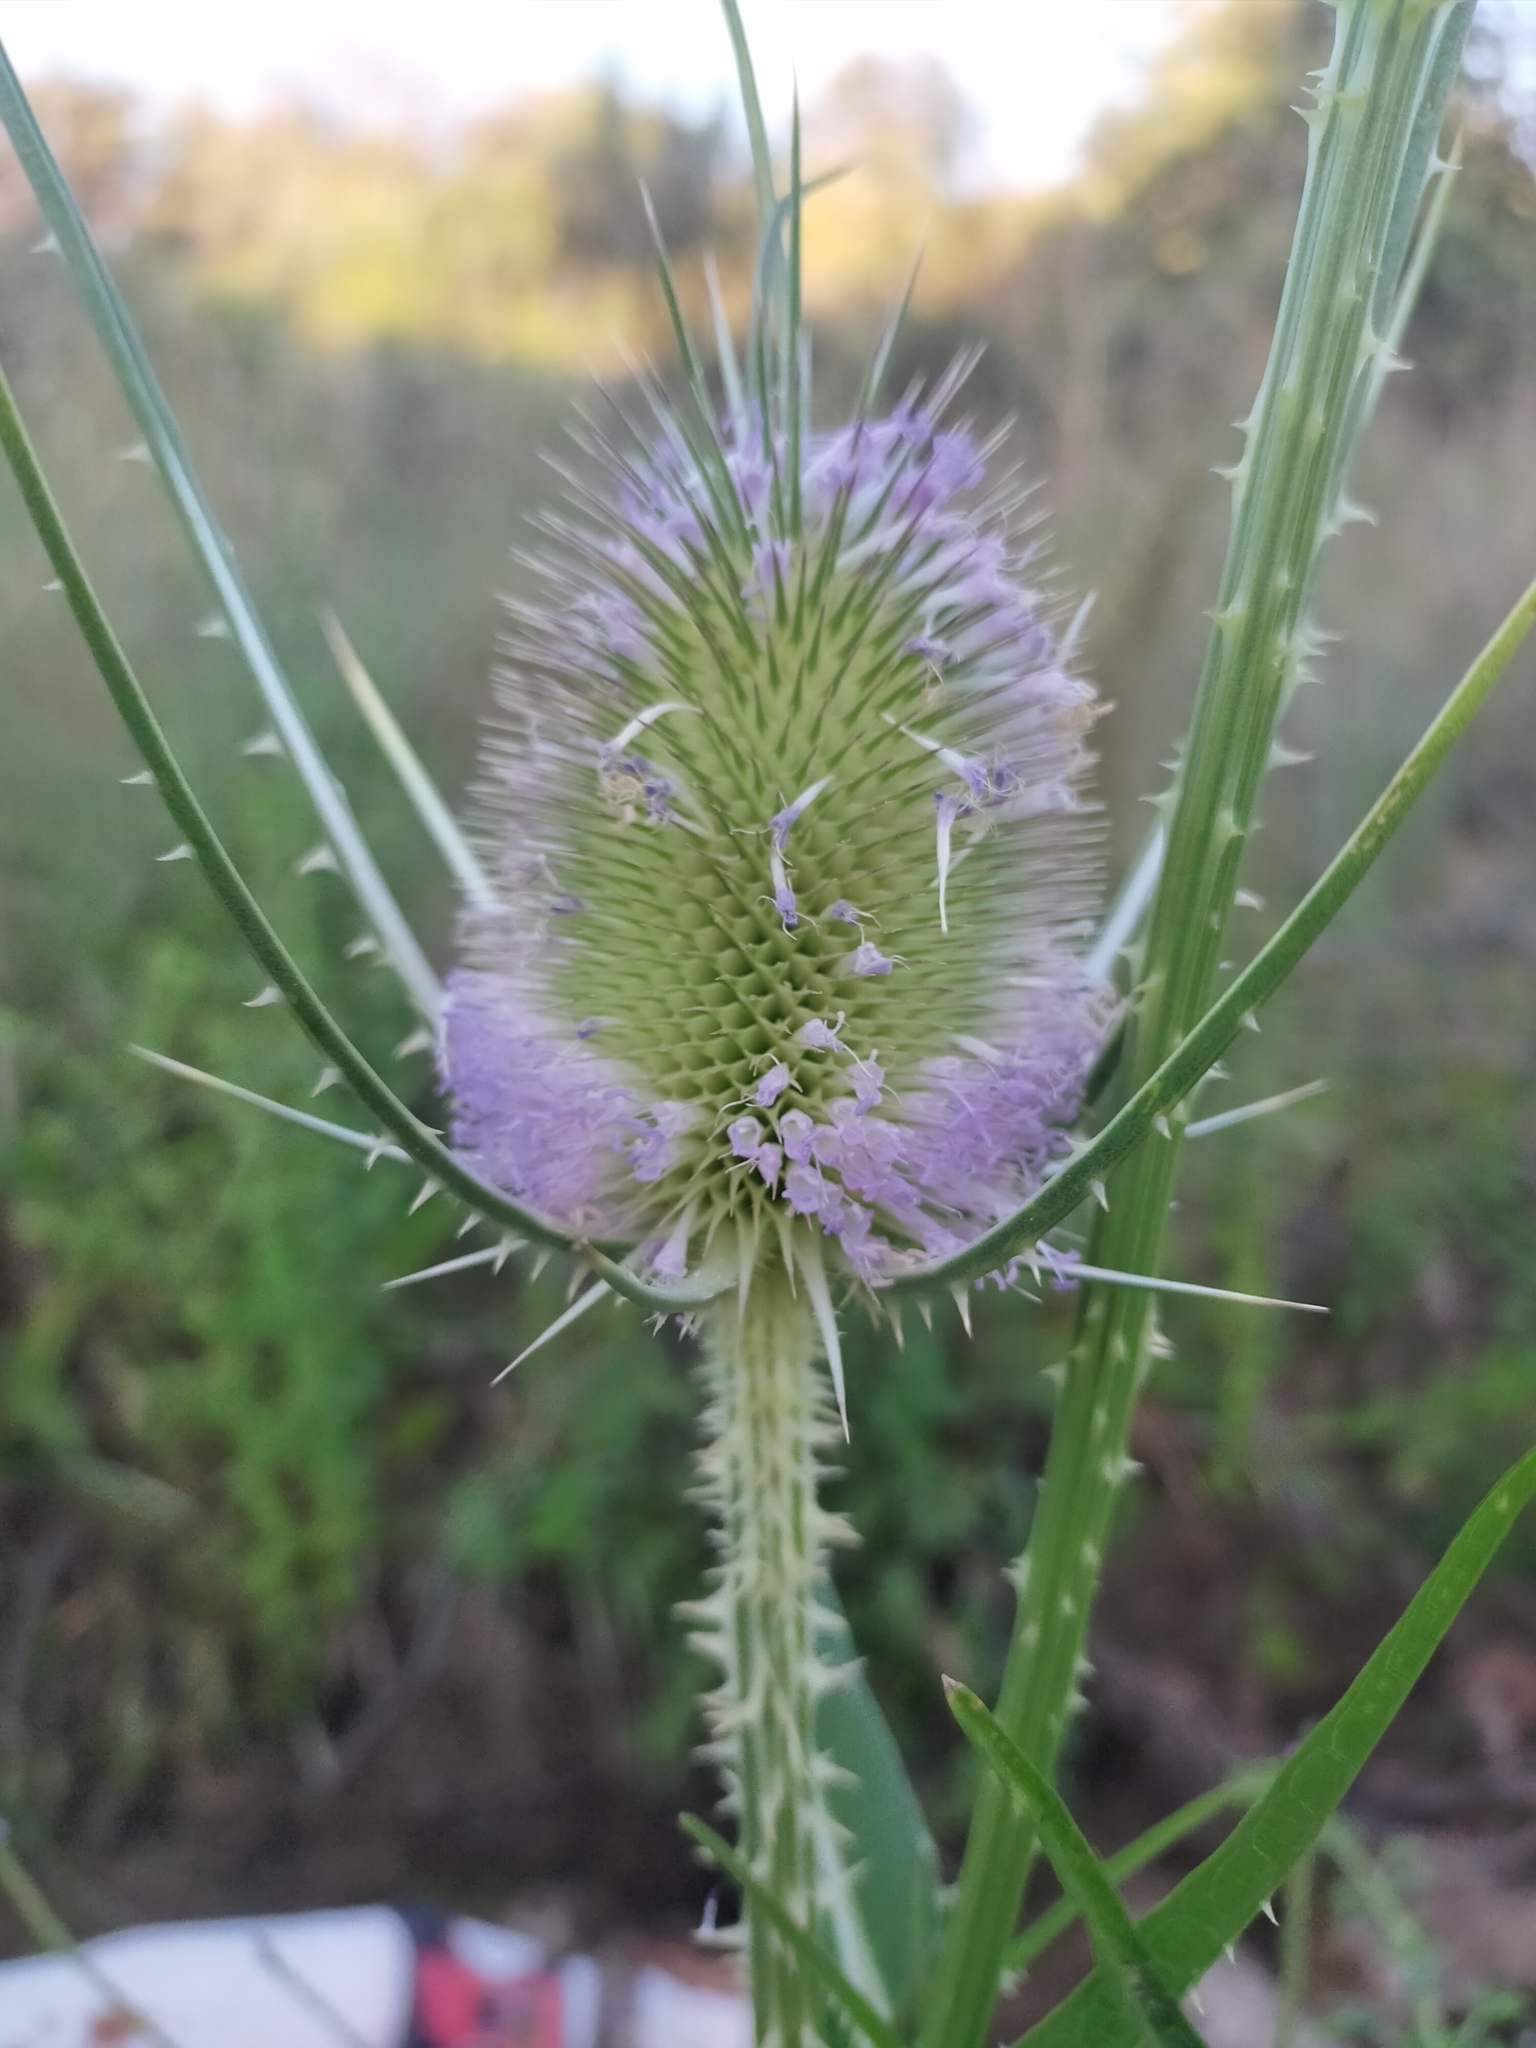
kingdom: Plantae
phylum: Tracheophyta
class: Magnoliopsida
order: Dipsacales
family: Caprifoliaceae
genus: Dipsacus
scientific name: Dipsacus fullonum
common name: Teasel
